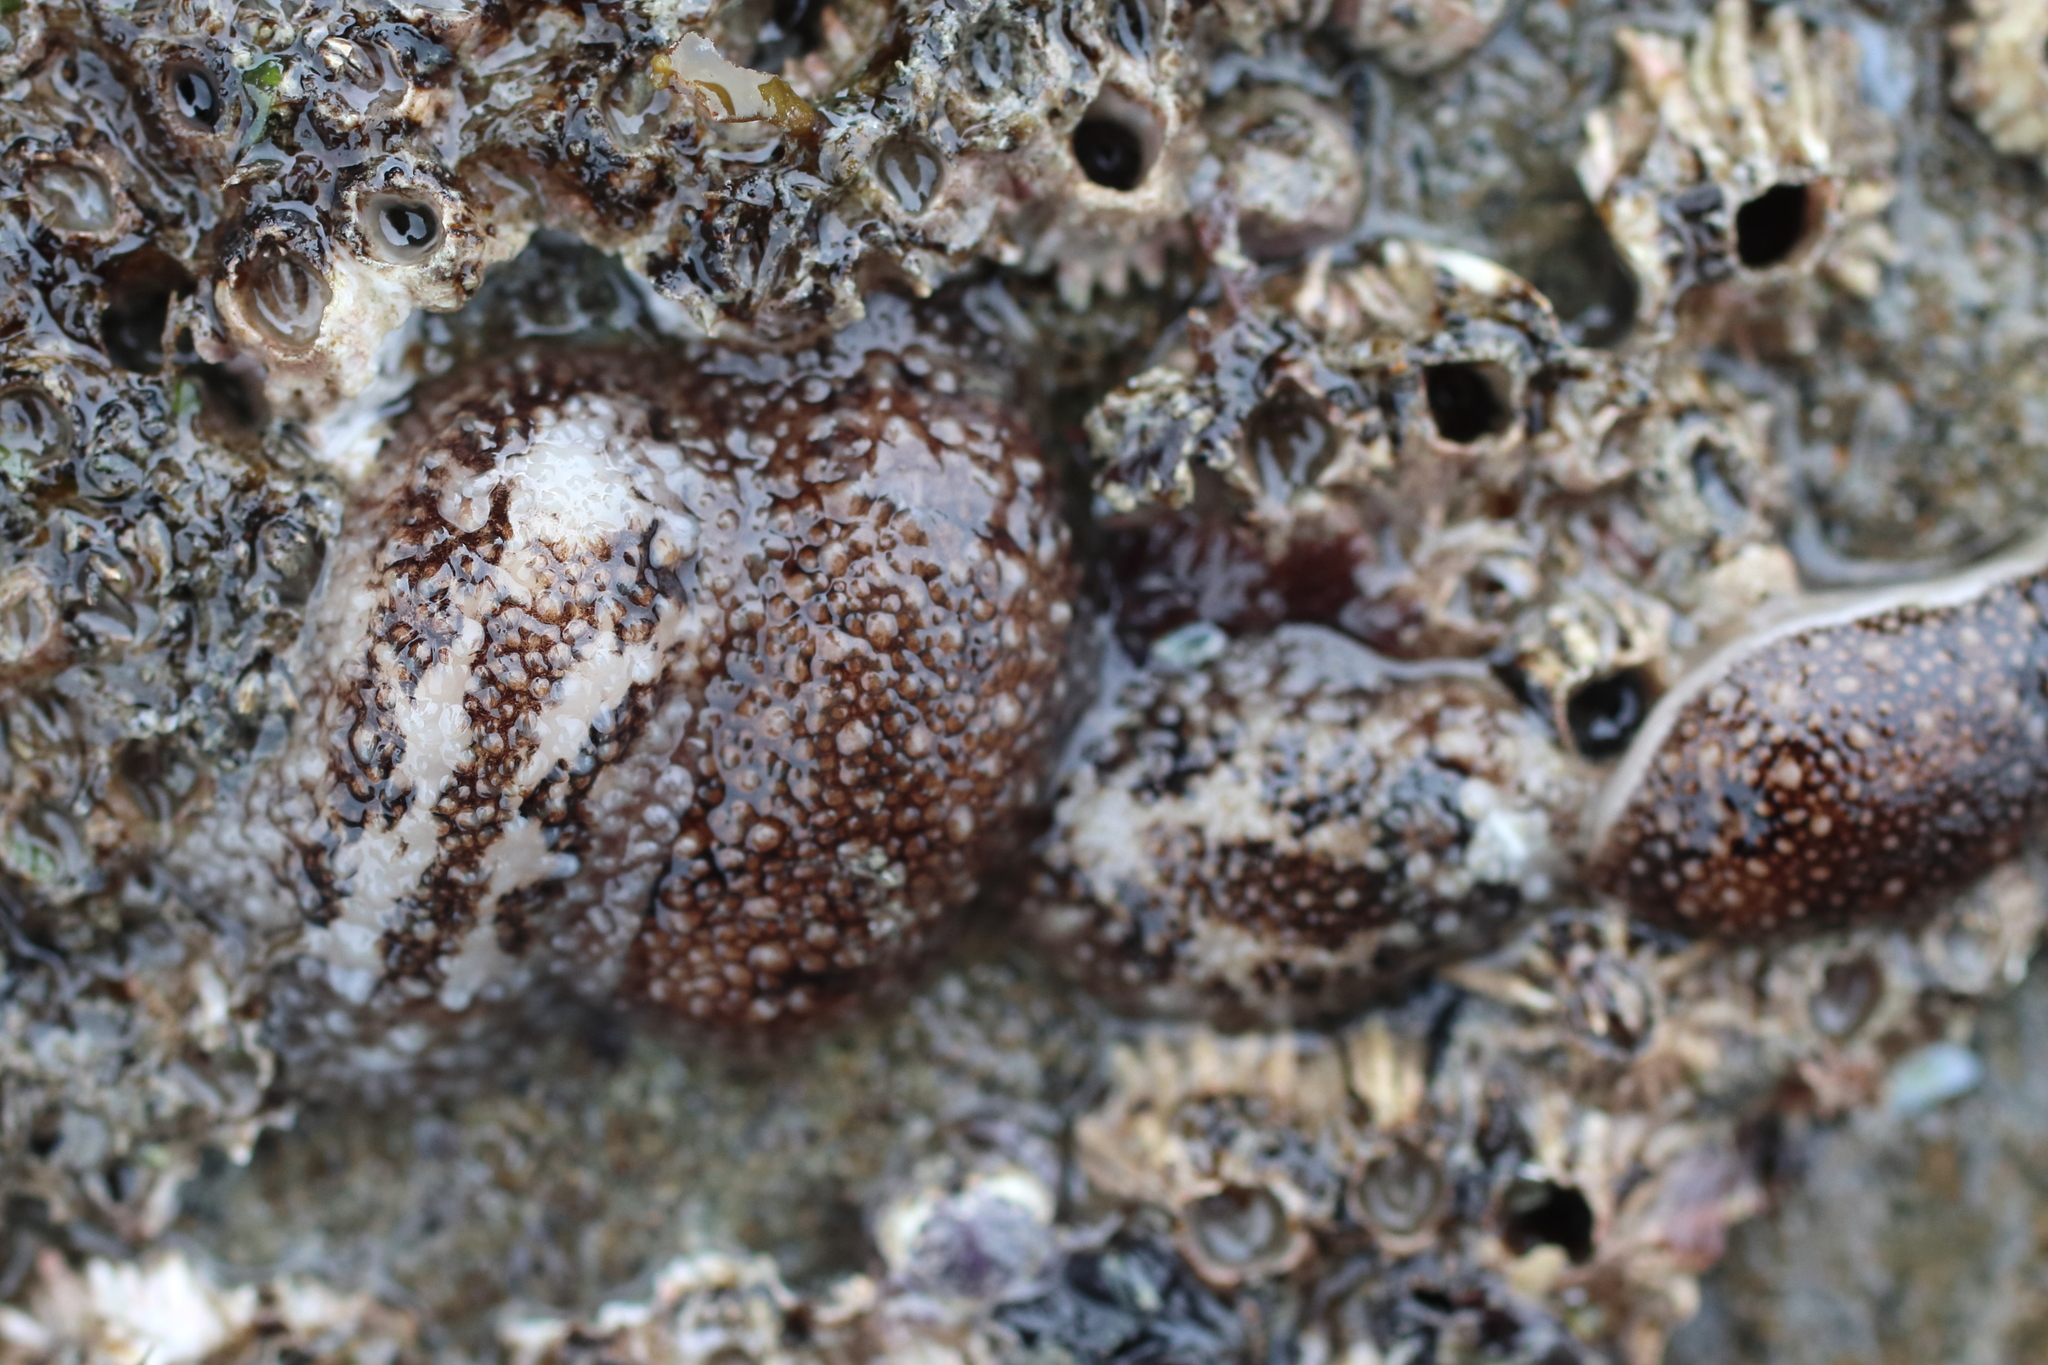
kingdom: Animalia
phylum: Mollusca
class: Gastropoda
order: Nudibranchia
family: Onchidorididae
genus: Onchidoris
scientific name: Onchidoris bilamellata
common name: Barnacle-eating onchidoris
